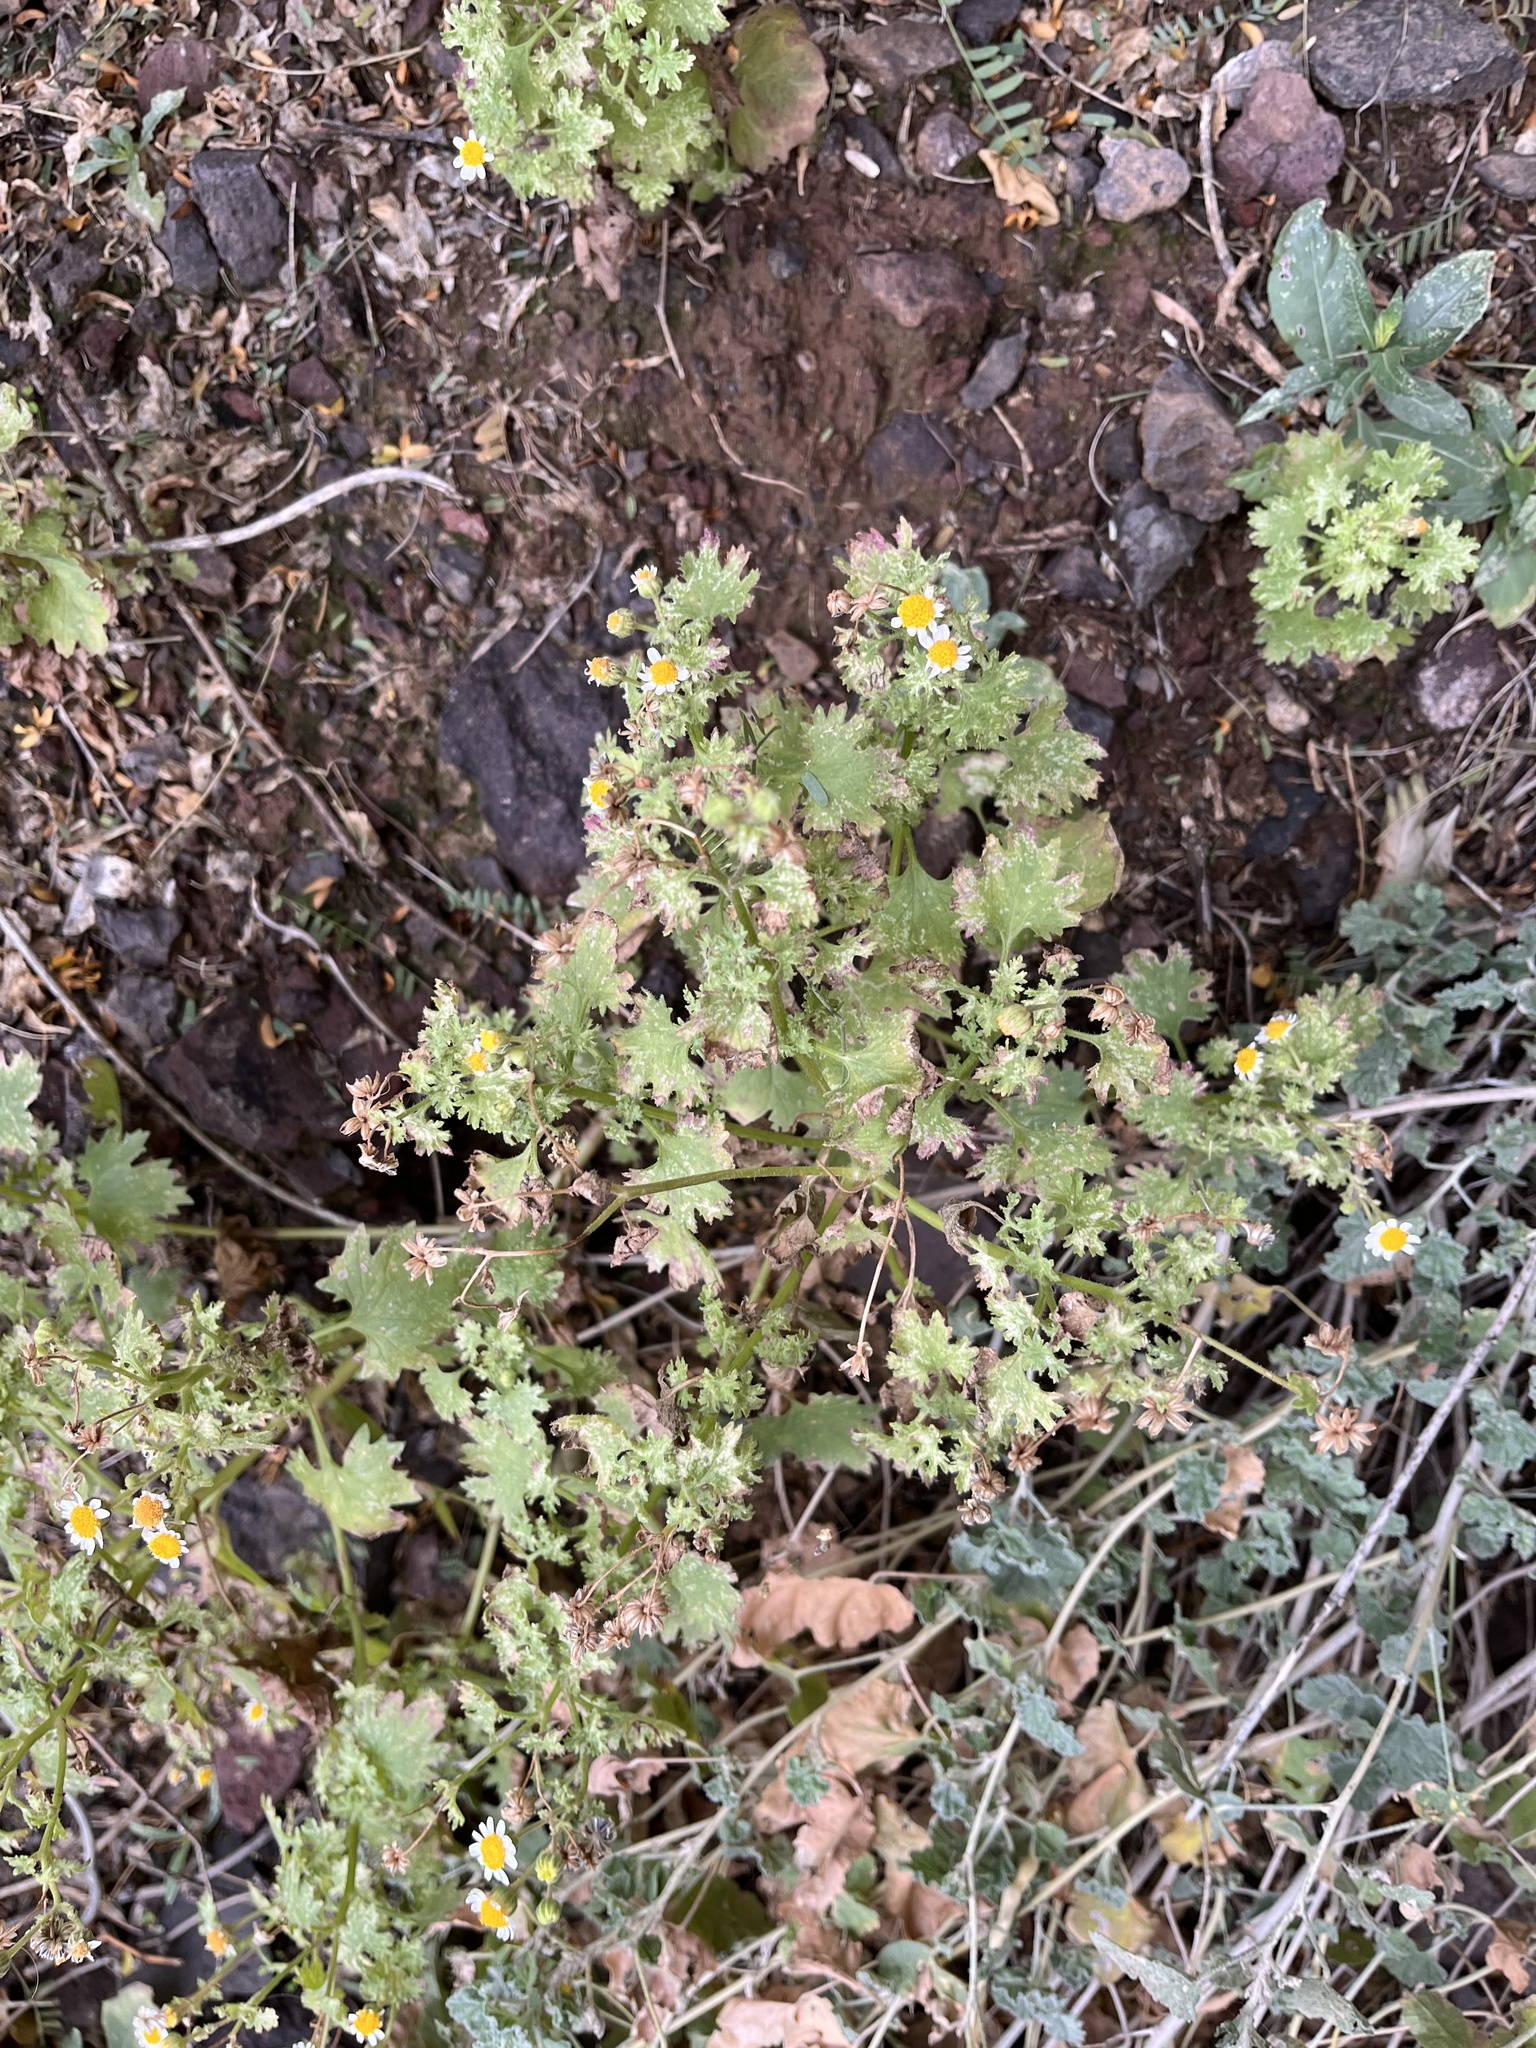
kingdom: Plantae
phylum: Tracheophyta
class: Magnoliopsida
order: Asterales
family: Asteraceae
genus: Laphamia
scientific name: Laphamia emoryi
